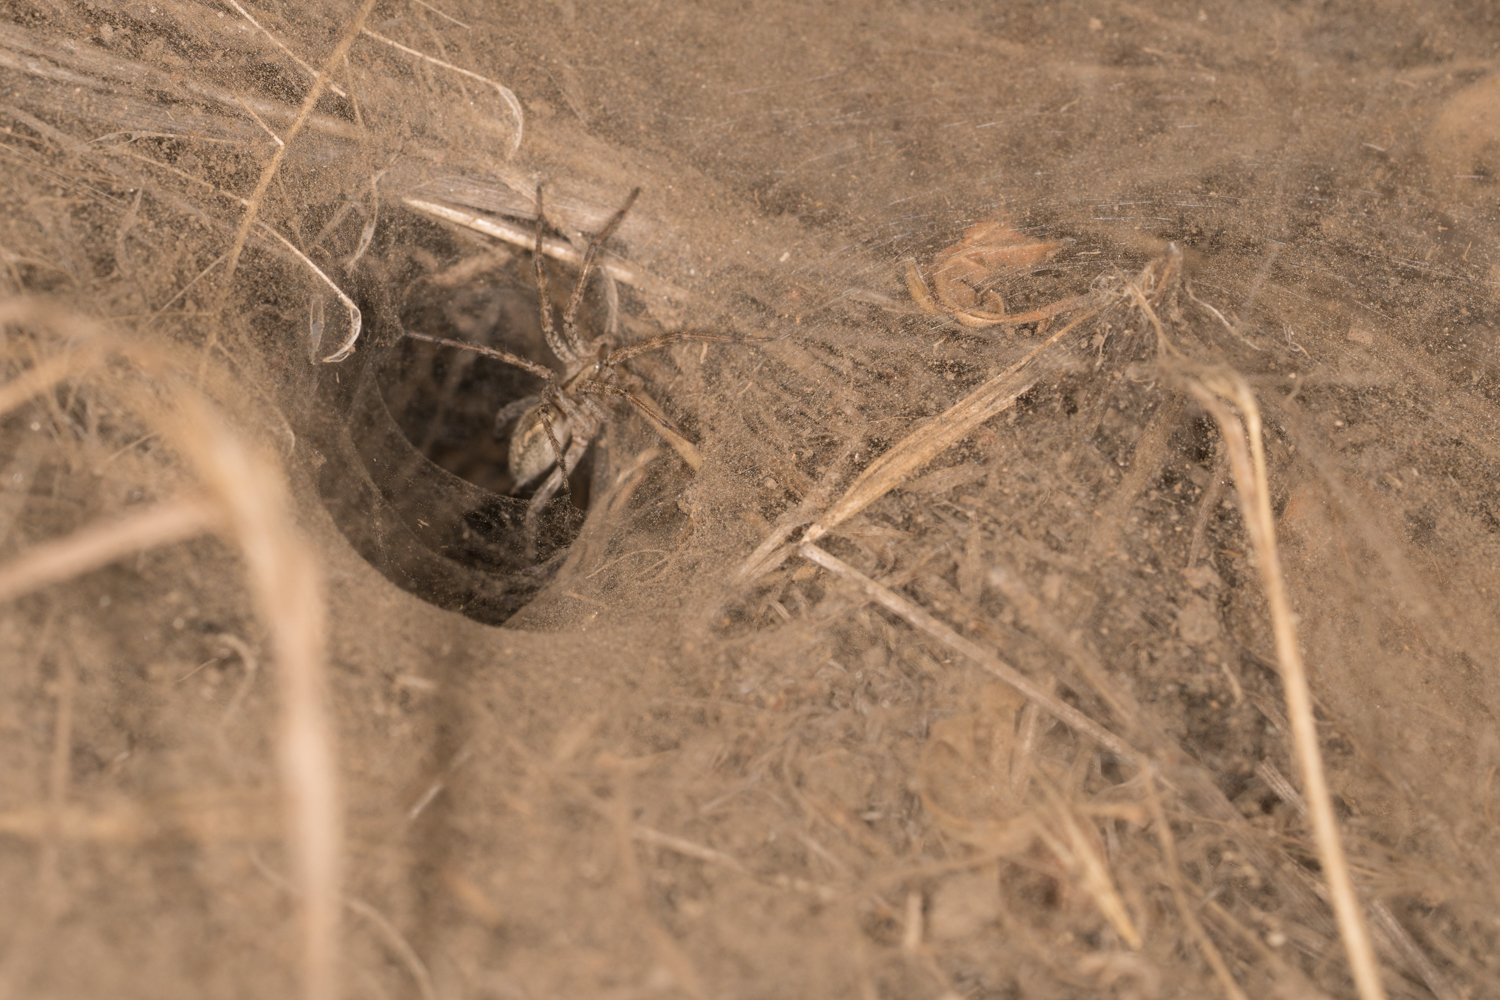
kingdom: Animalia
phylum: Arthropoda
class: Arachnida
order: Araneae
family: Agelenidae
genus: Agelenopsis
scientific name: Agelenopsis
